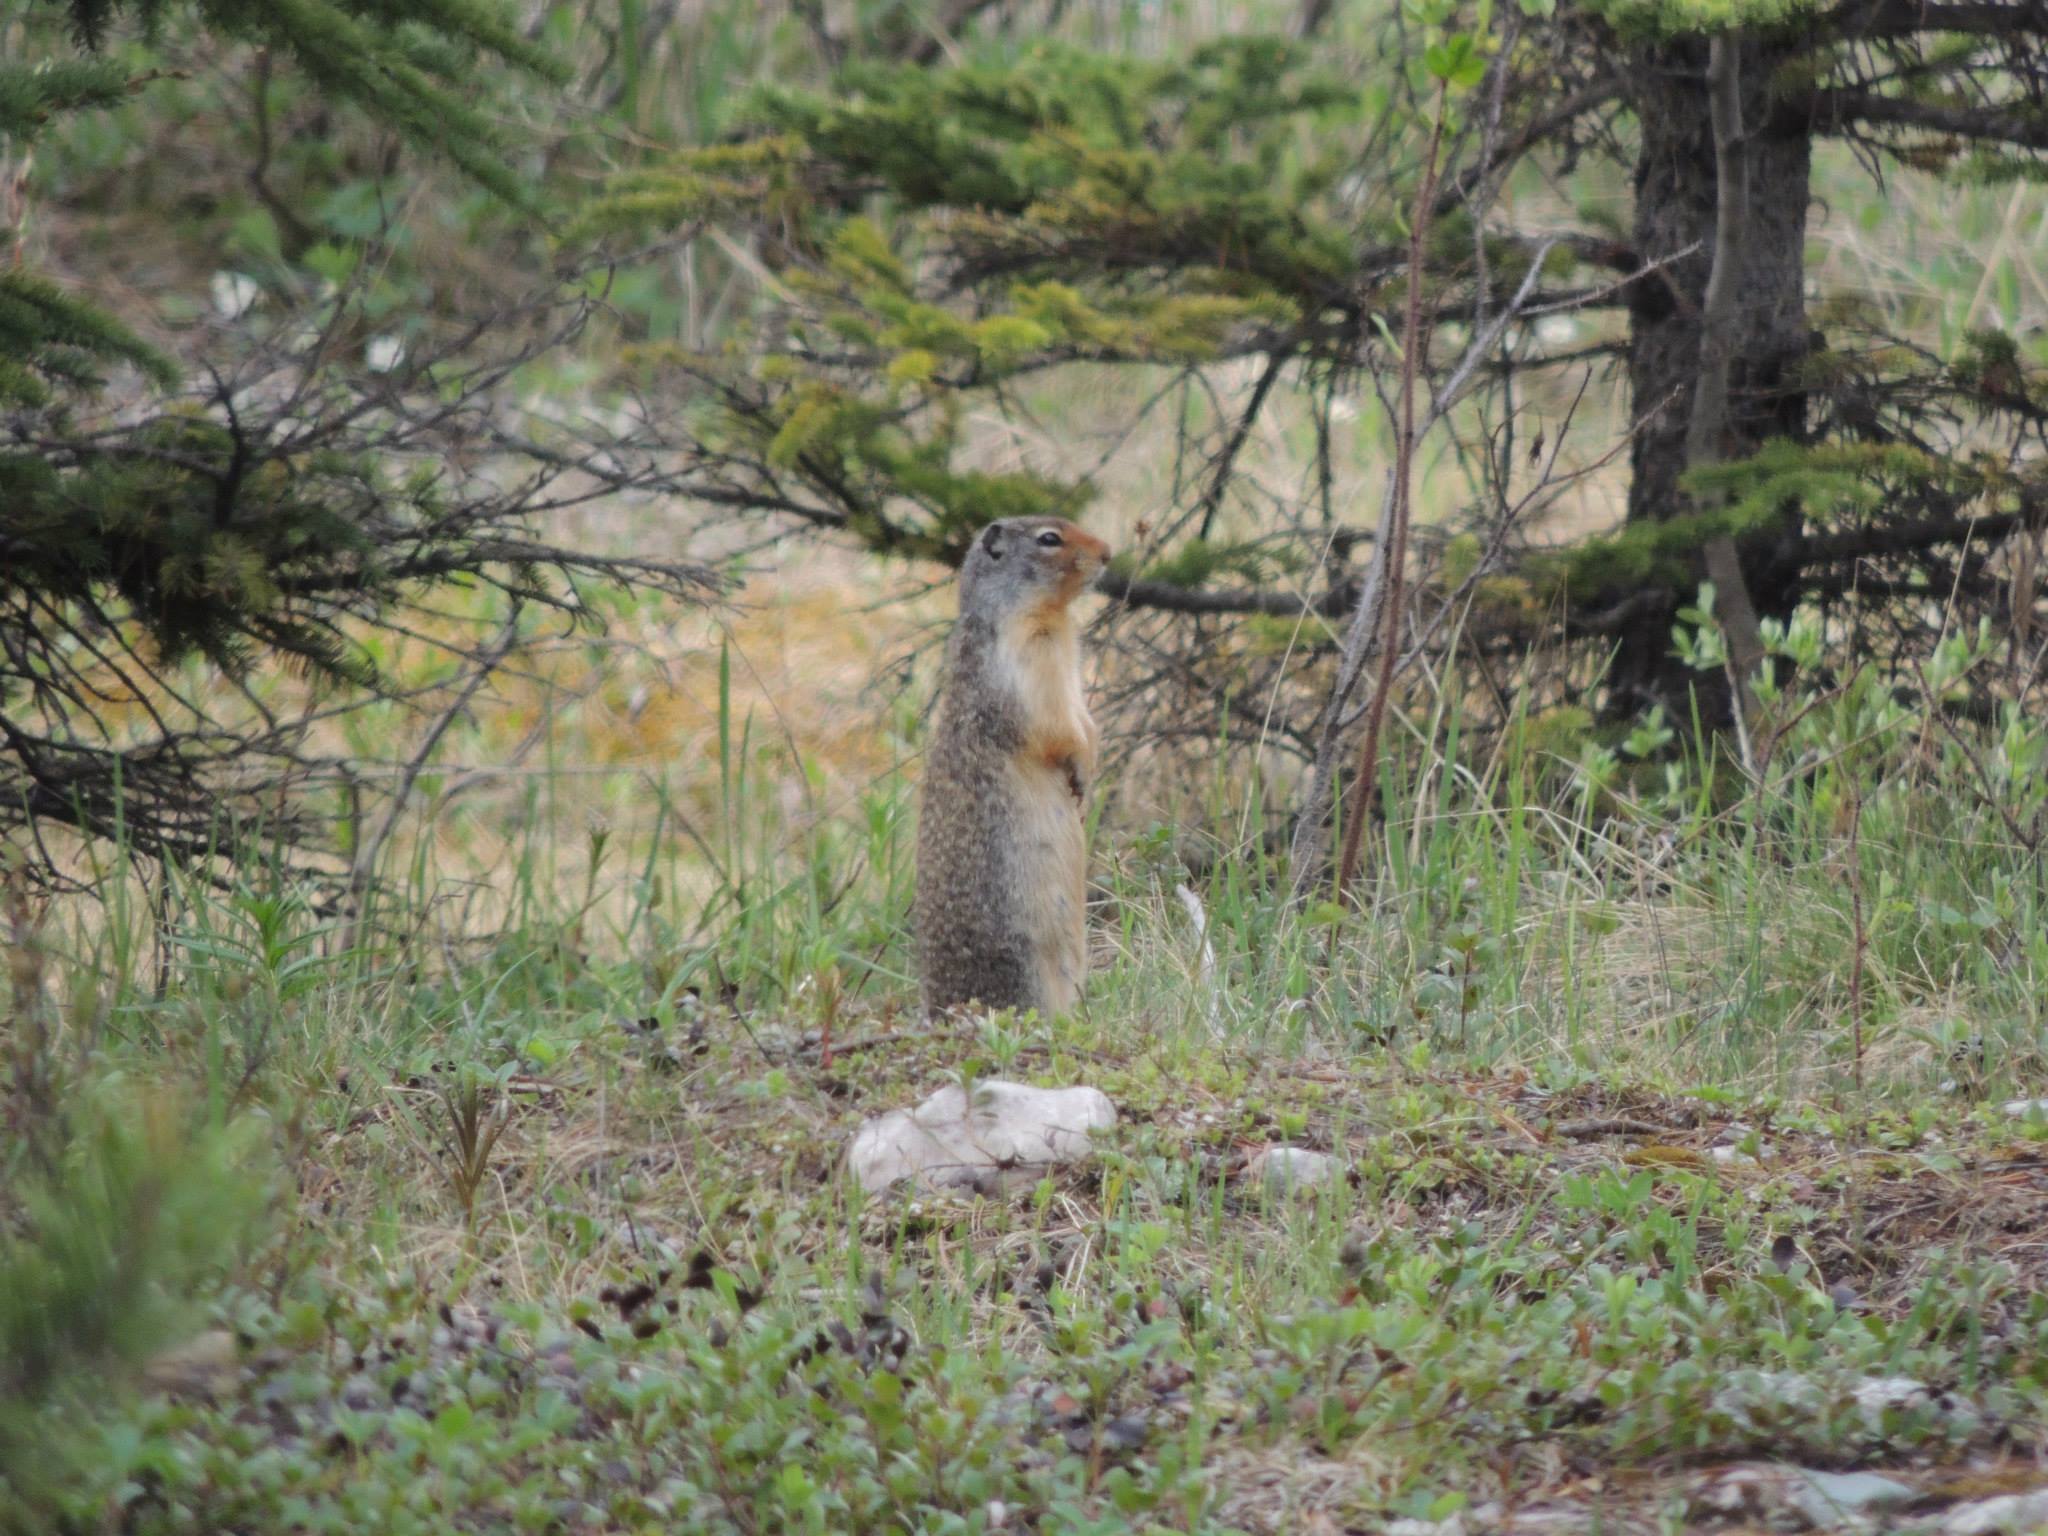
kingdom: Animalia
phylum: Chordata
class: Mammalia
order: Rodentia
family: Sciuridae
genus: Urocitellus
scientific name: Urocitellus columbianus
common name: Columbian ground squirrel
